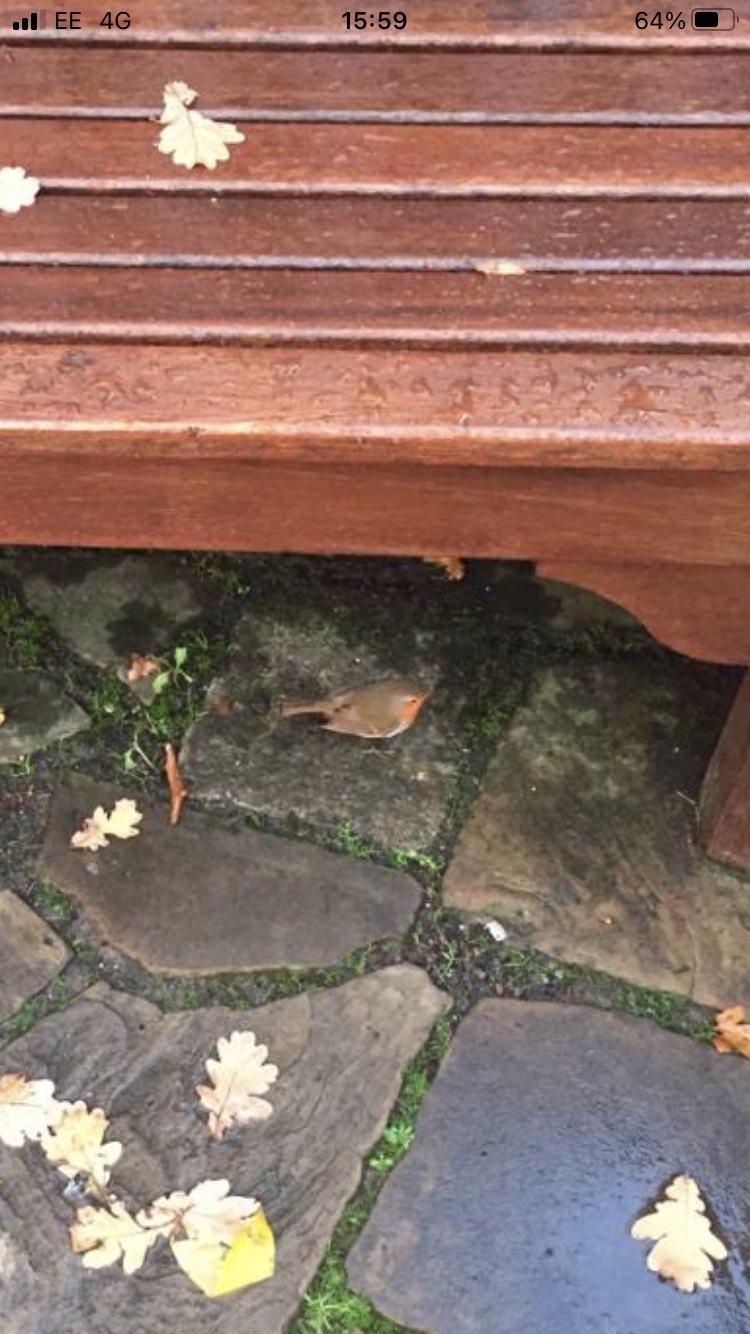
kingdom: Animalia
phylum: Chordata
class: Aves
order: Passeriformes
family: Muscicapidae
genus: Erithacus
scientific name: Erithacus rubecula
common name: European robin
